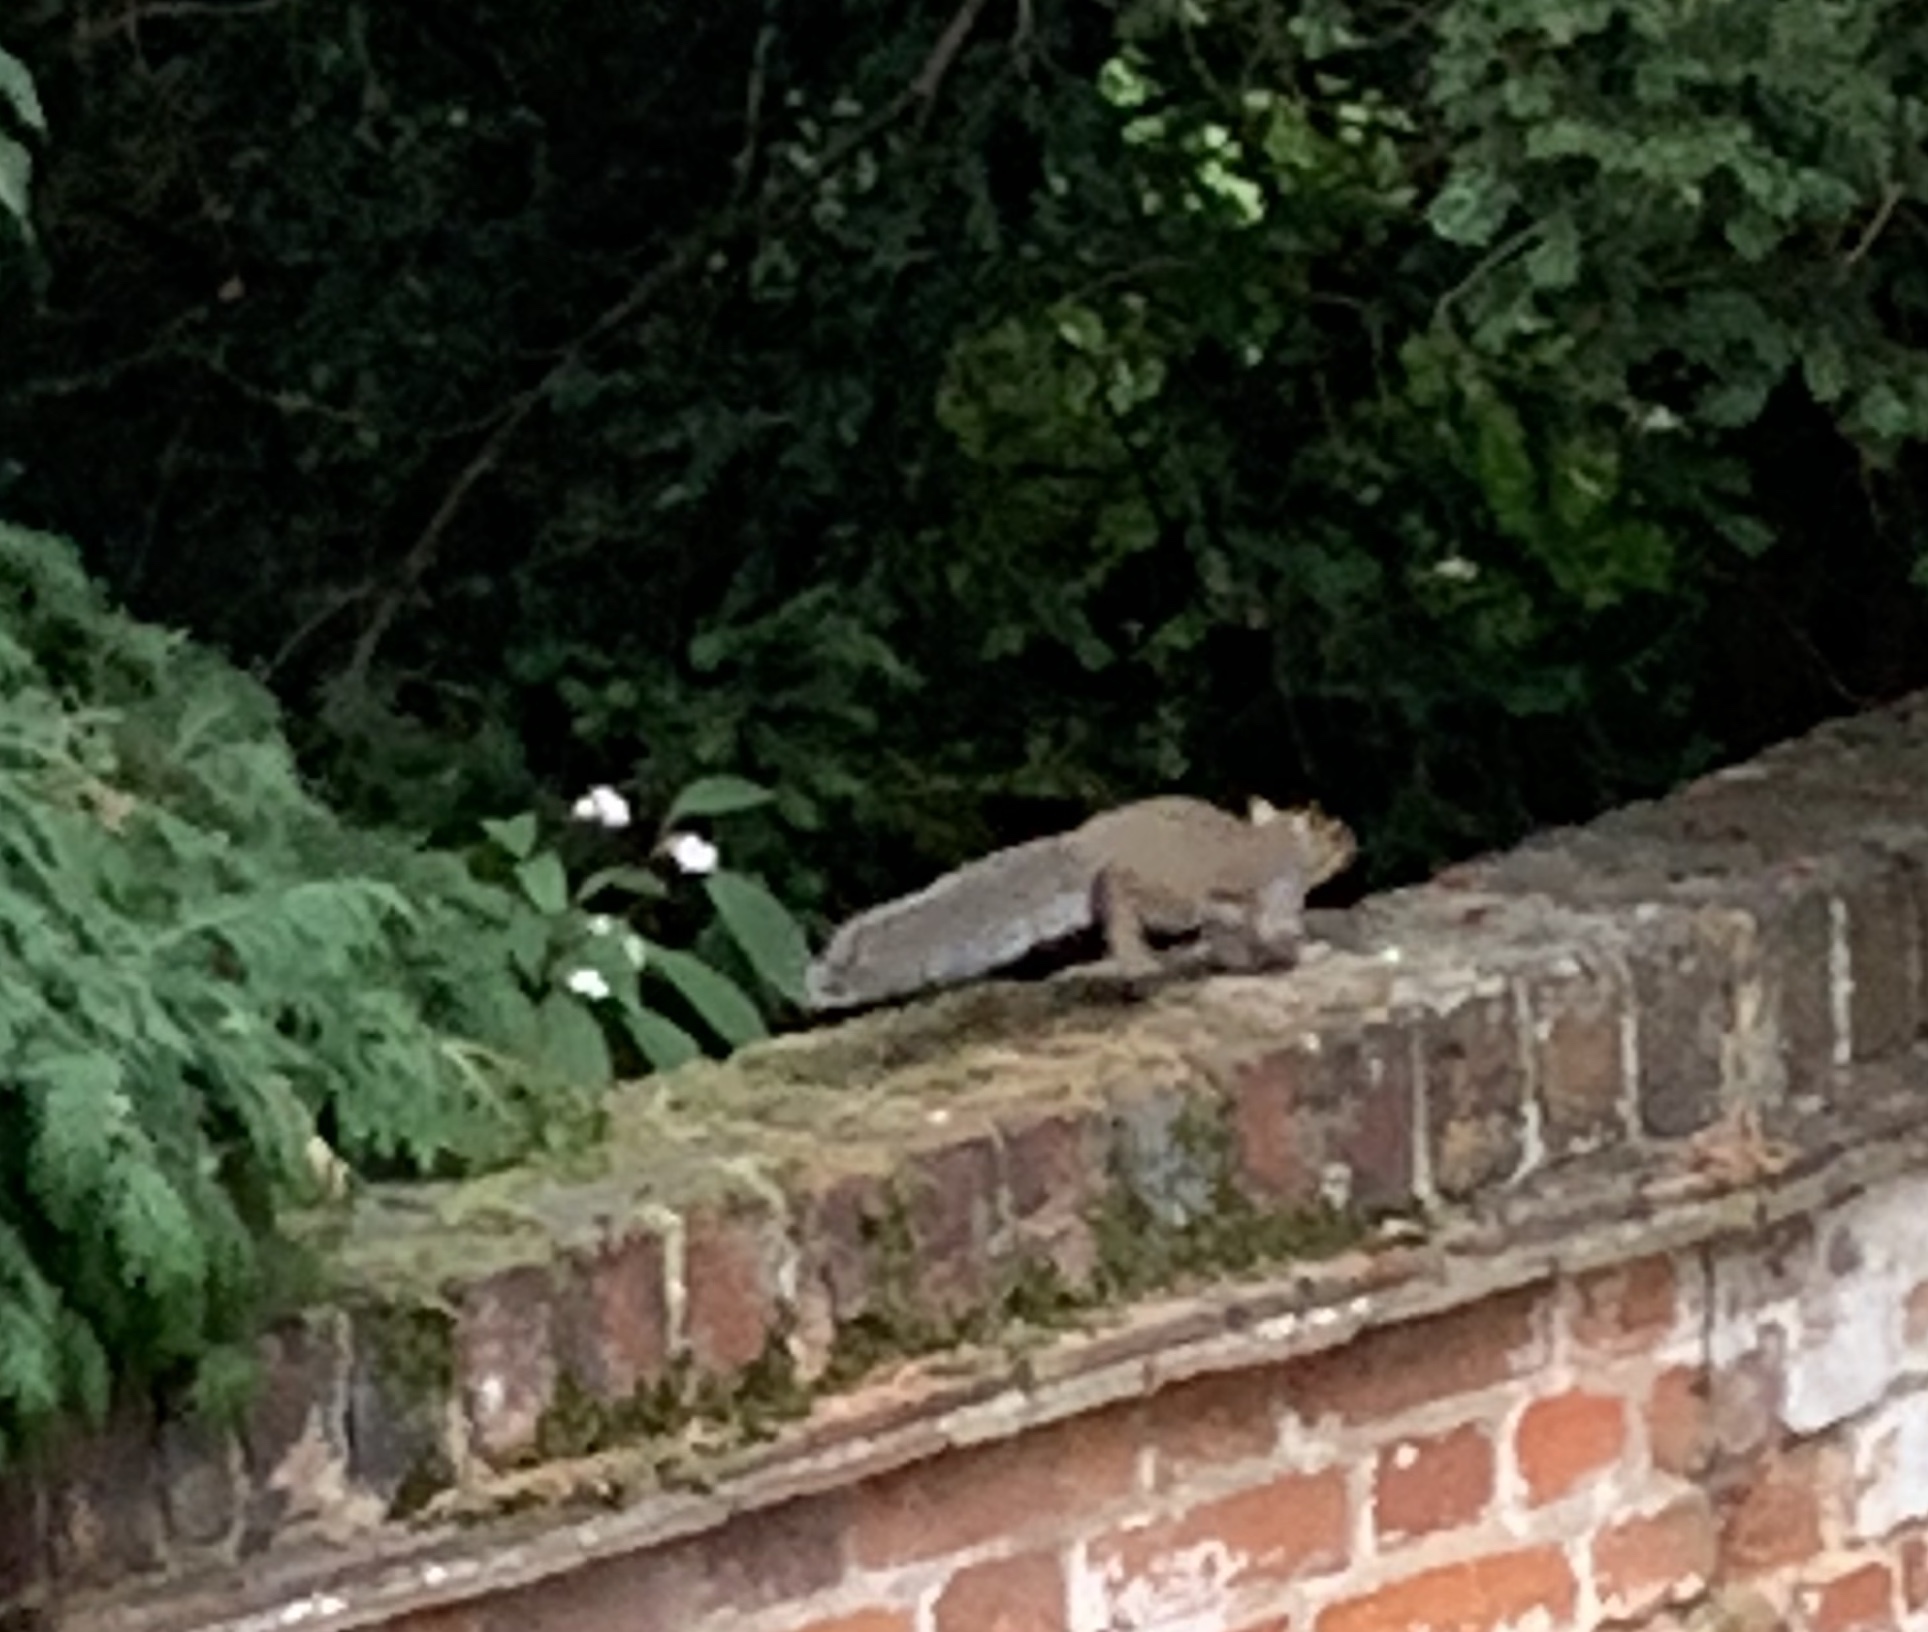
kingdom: Animalia
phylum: Chordata
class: Mammalia
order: Rodentia
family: Sciuridae
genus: Sciurus
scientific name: Sciurus carolinensis
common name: Eastern gray squirrel
